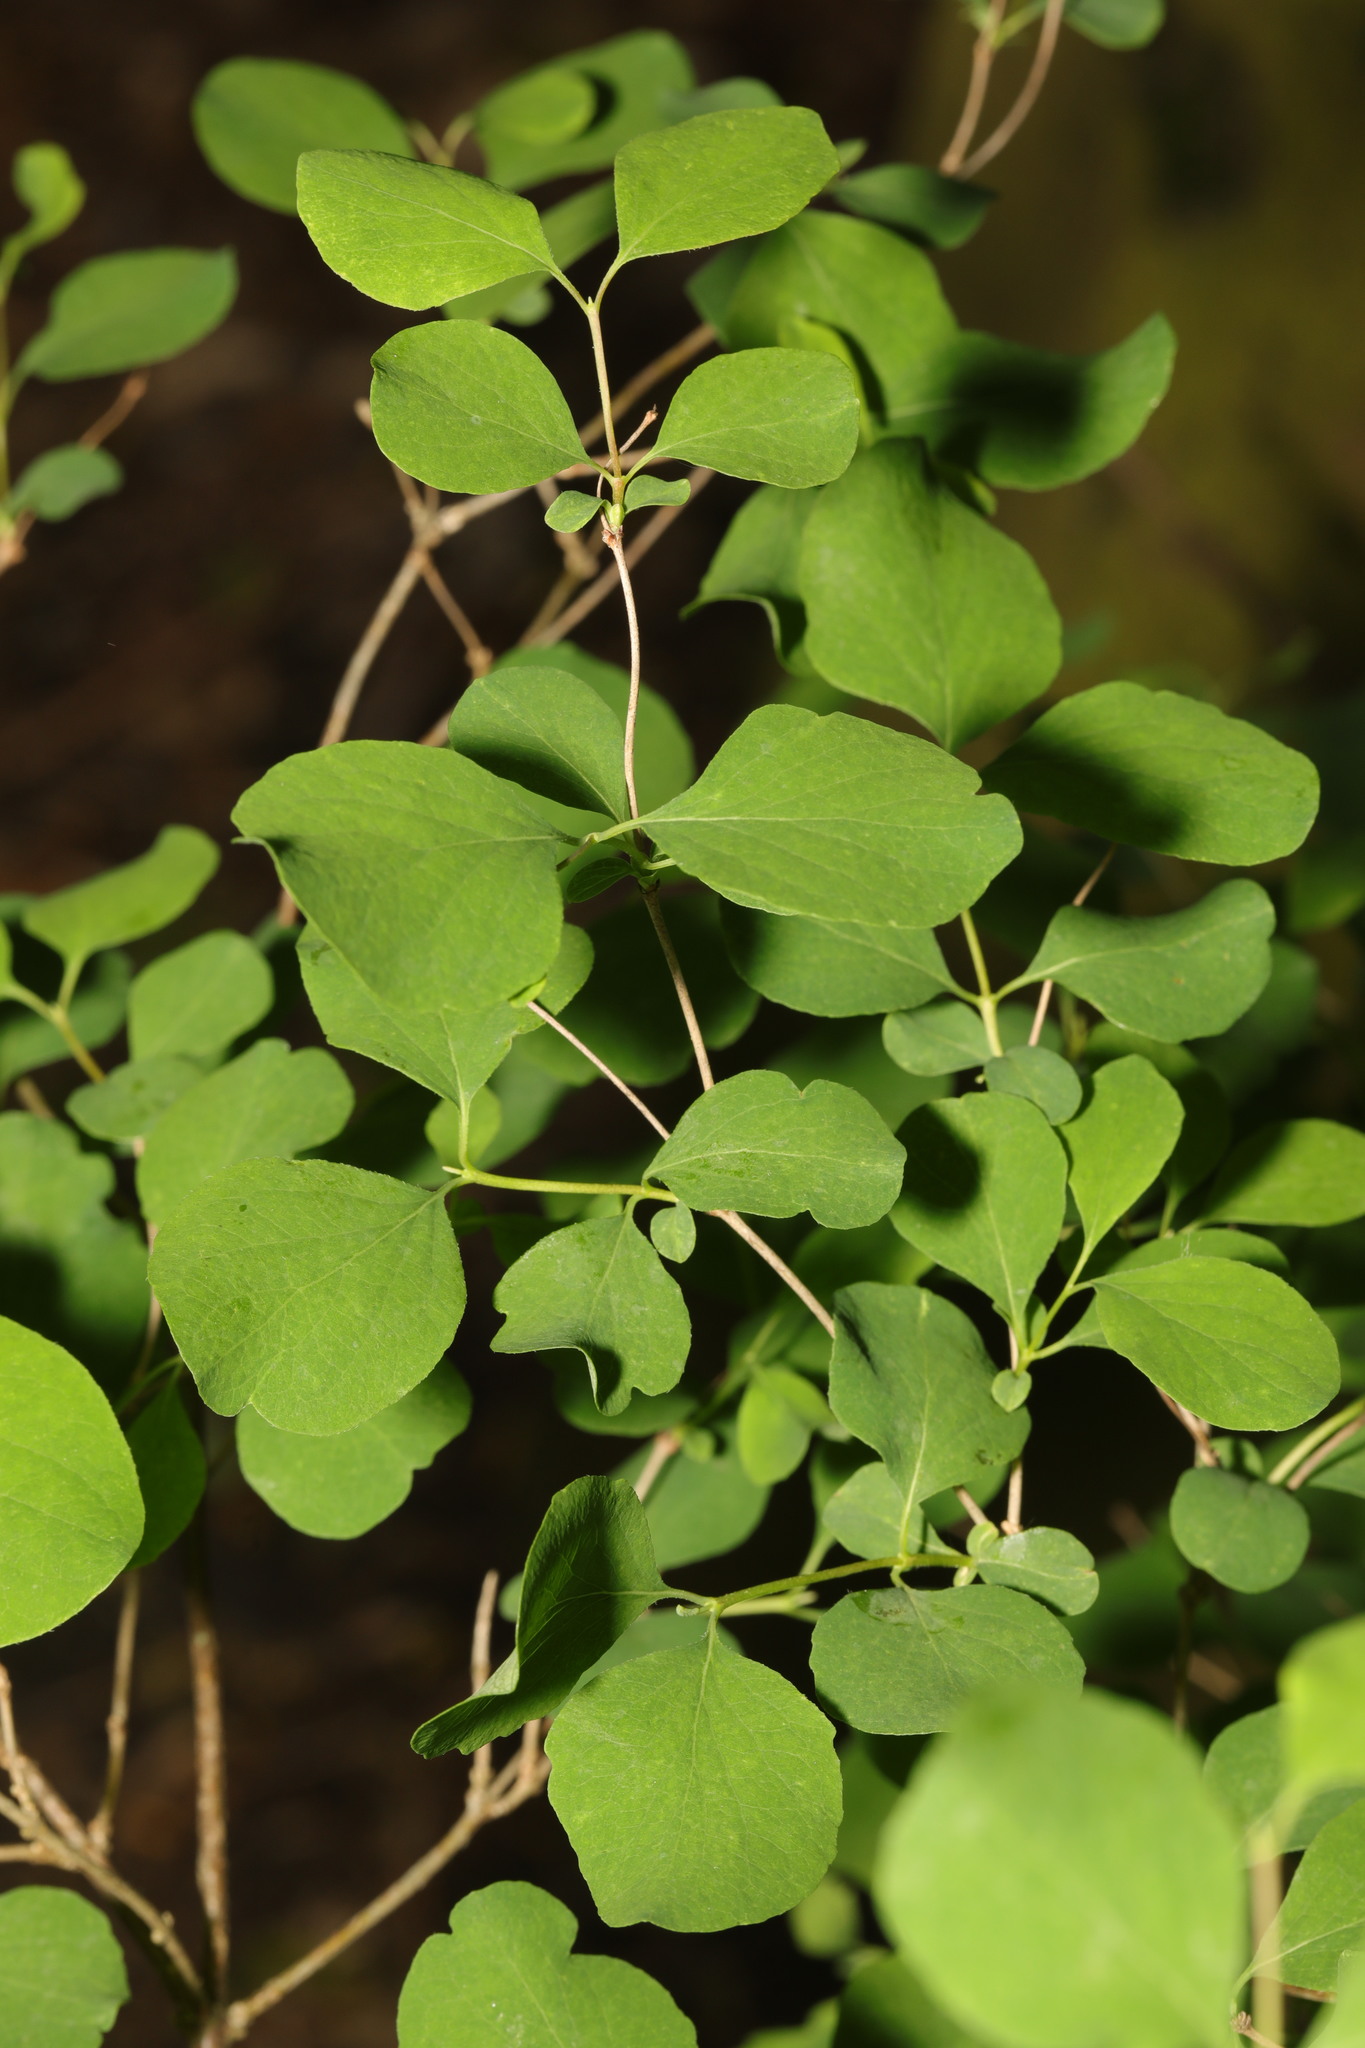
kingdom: Plantae
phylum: Tracheophyta
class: Magnoliopsida
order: Dipsacales
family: Caprifoliaceae
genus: Symphoricarpos
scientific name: Symphoricarpos albus
